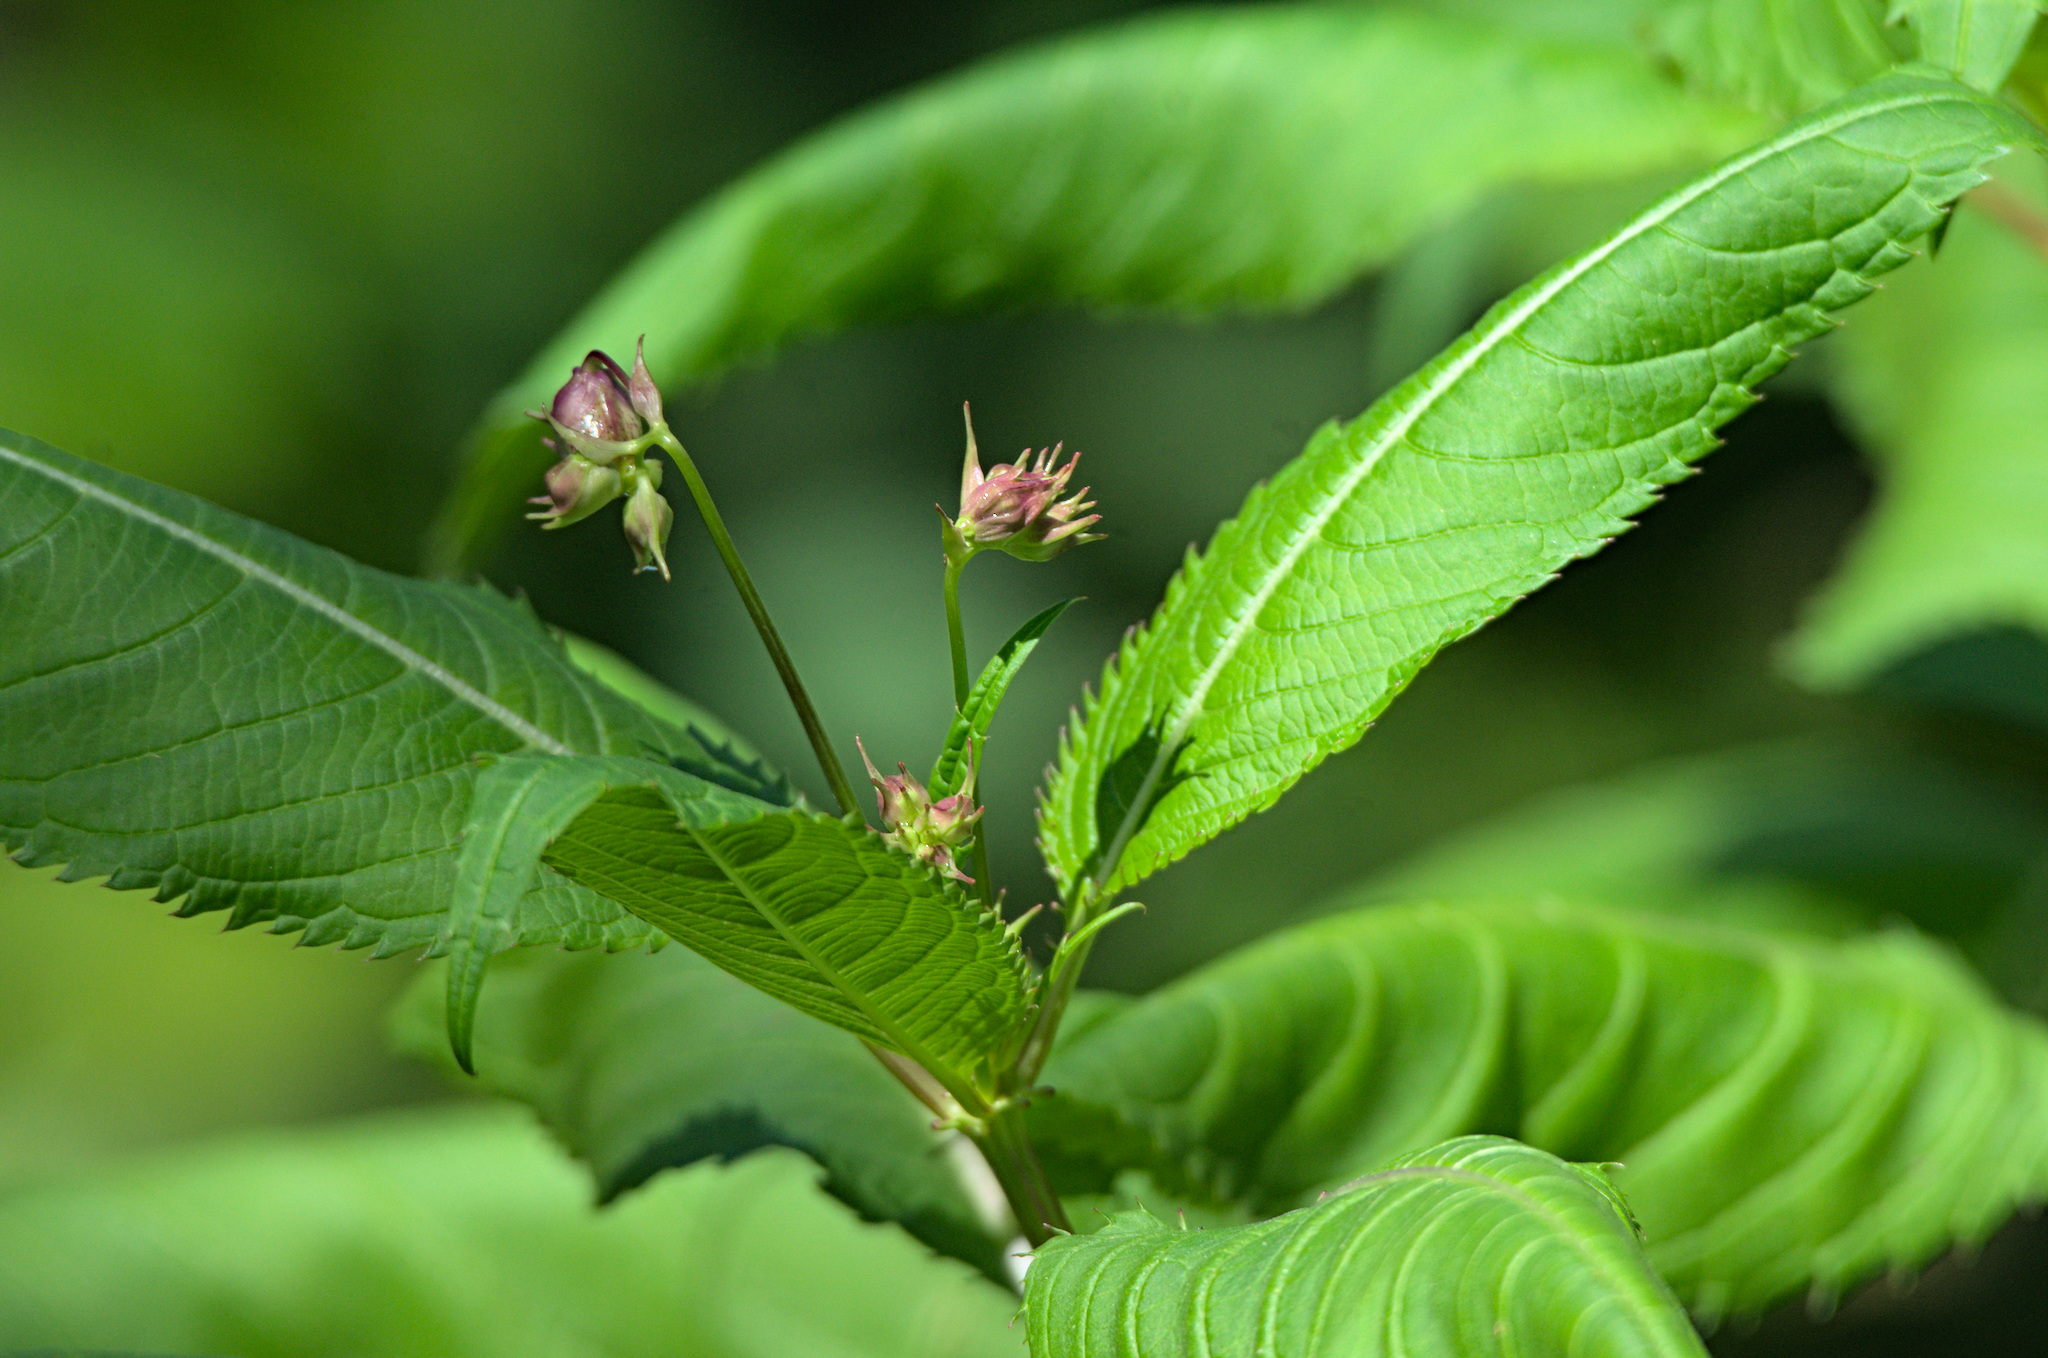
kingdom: Plantae
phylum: Tracheophyta
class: Magnoliopsida
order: Ericales
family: Balsaminaceae
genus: Impatiens
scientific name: Impatiens glandulifera
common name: Himalayan balsam
